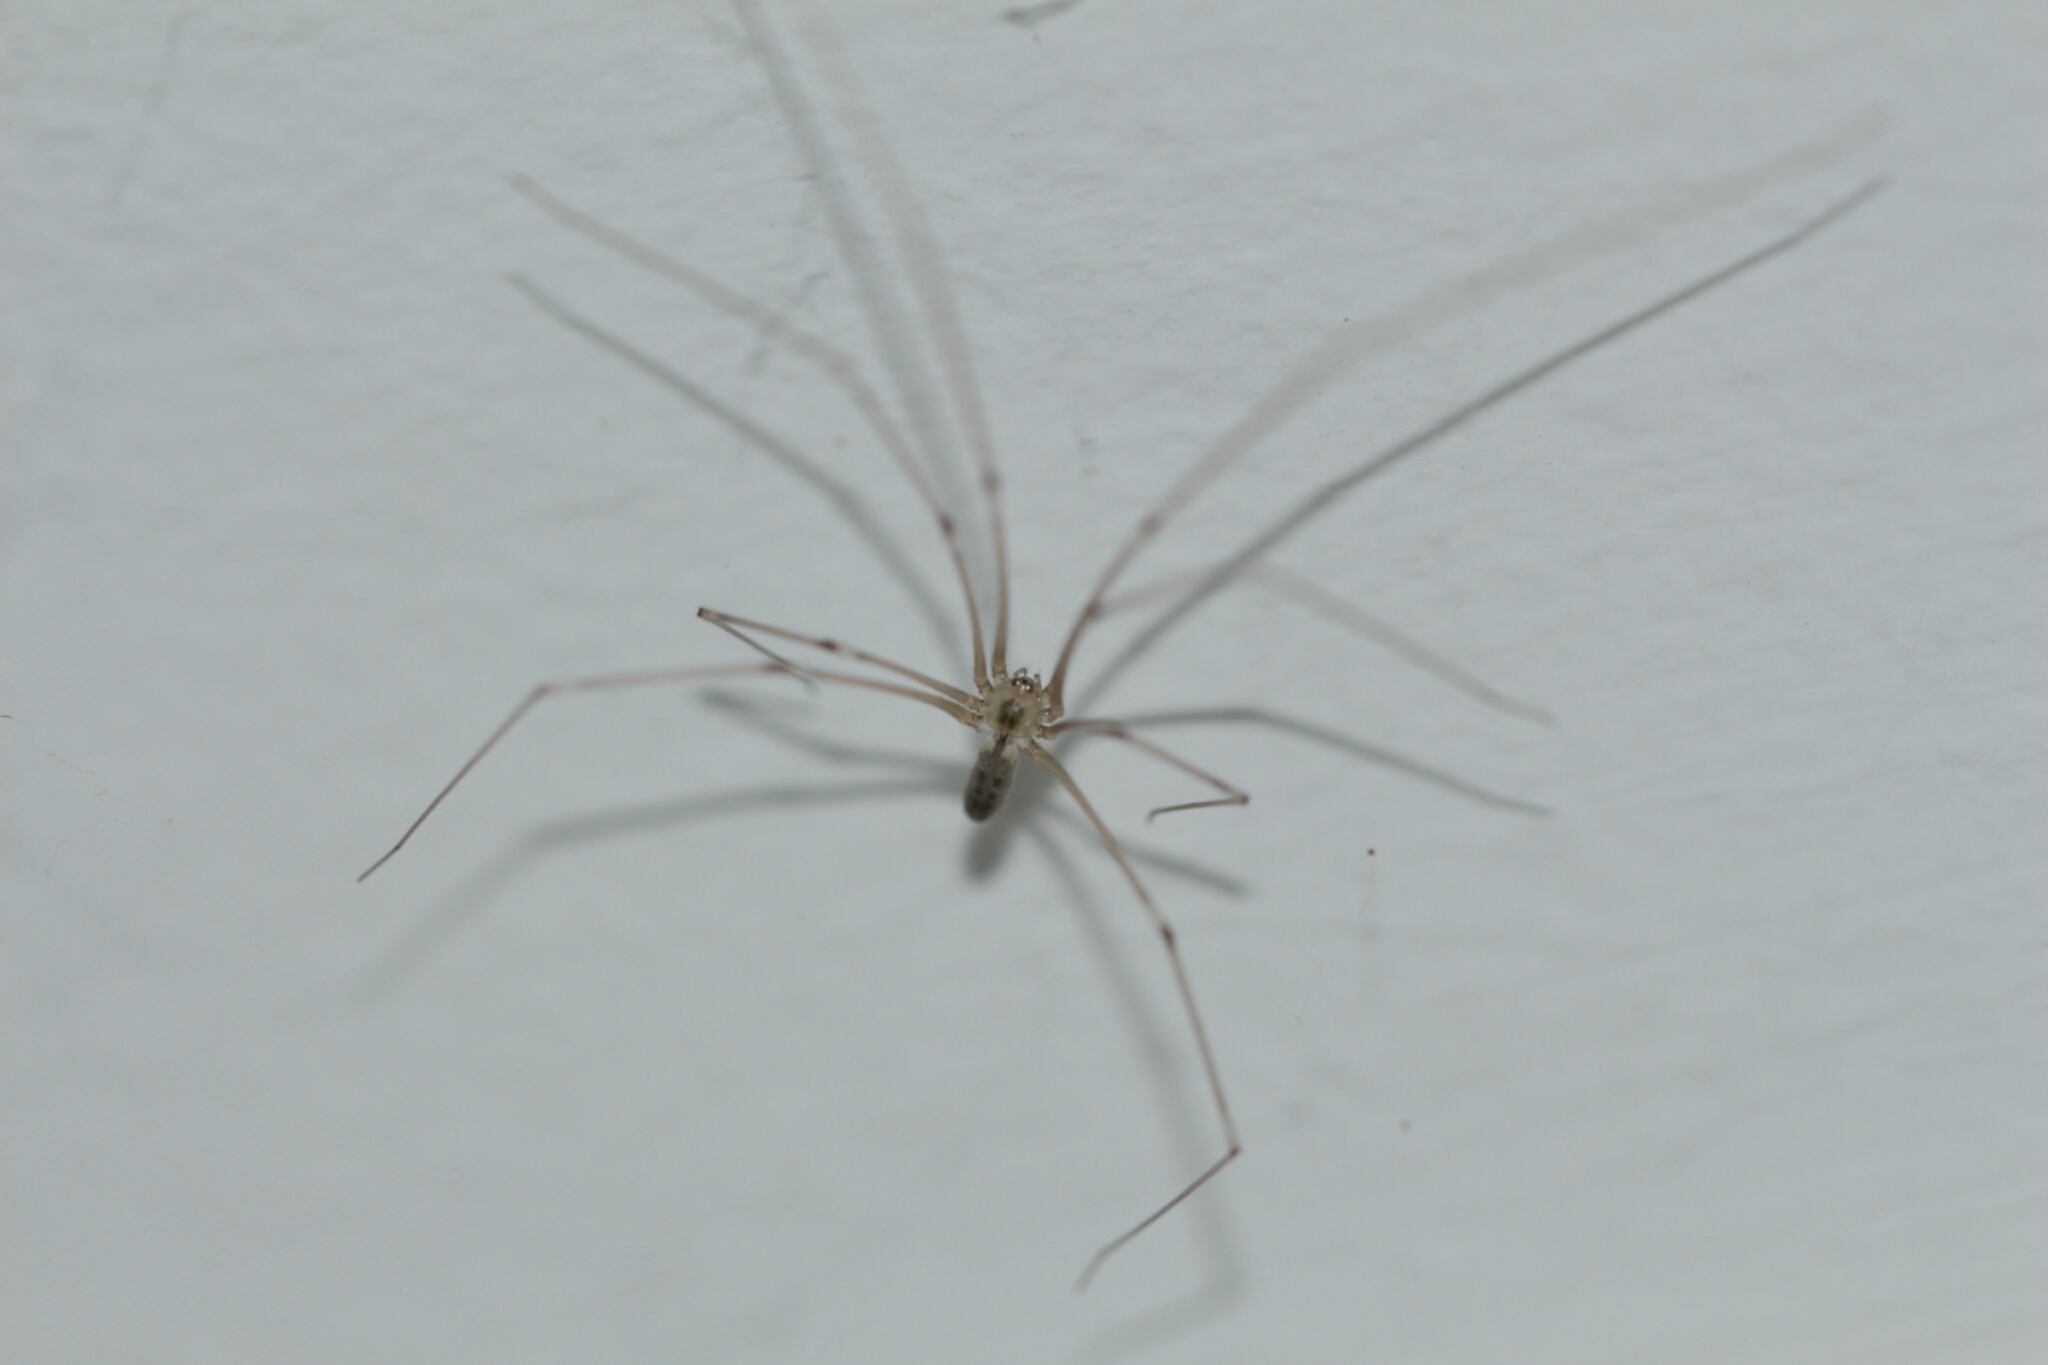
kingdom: Animalia
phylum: Arthropoda
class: Arachnida
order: Araneae
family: Pholcidae
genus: Pholcus
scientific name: Pholcus phalangioides
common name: Longbodied cellar spider
